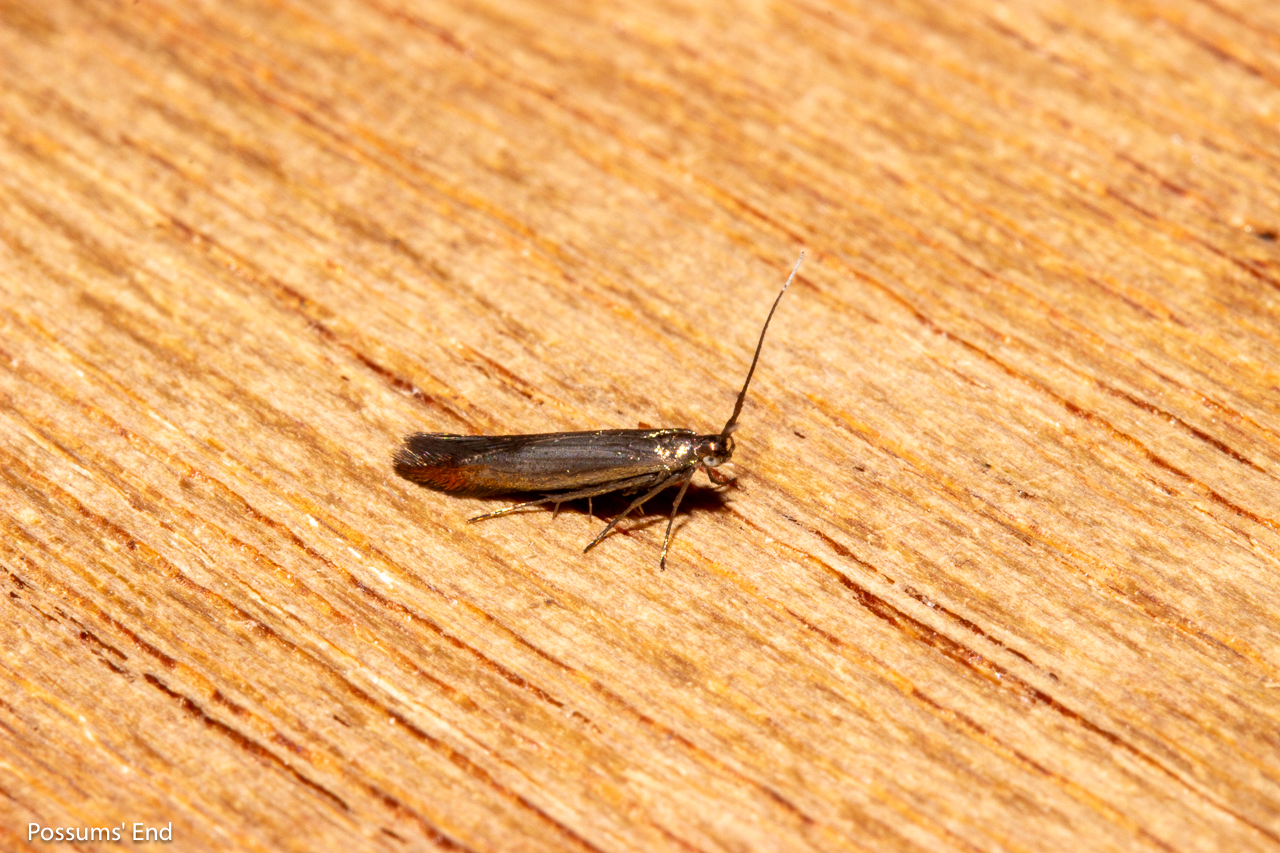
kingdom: Animalia
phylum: Arthropoda
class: Insecta
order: Lepidoptera
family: Coleophoridae
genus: Coleophora
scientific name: Coleophora alcyonipennella
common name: Clover case-bearer
